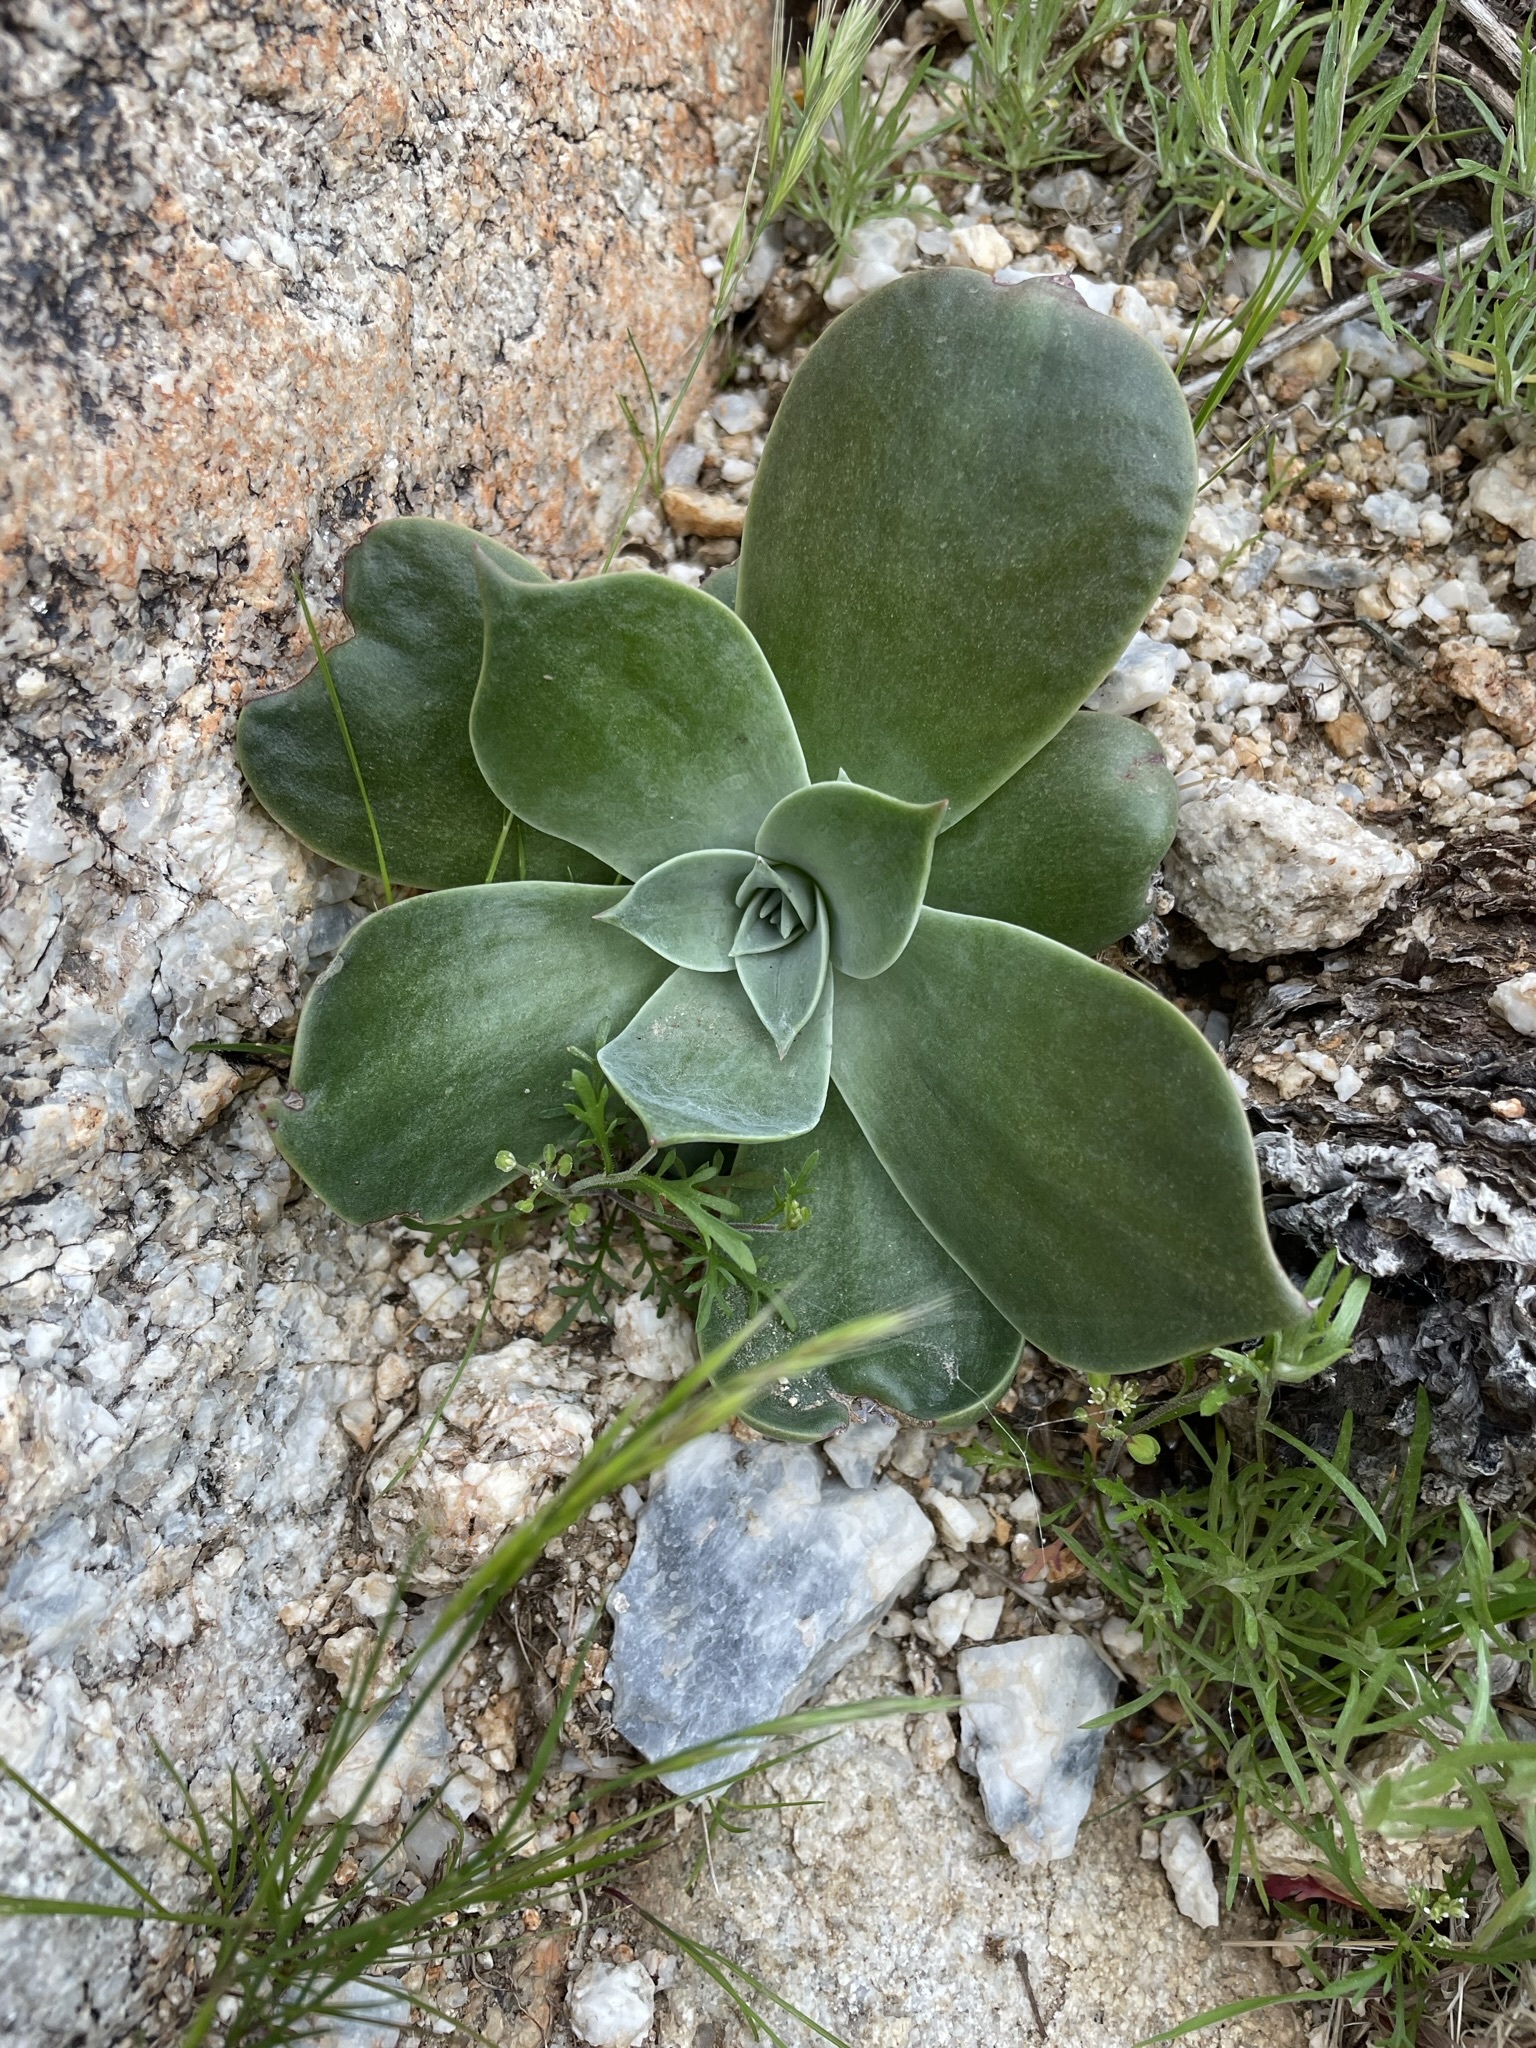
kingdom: Plantae
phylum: Tracheophyta
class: Magnoliopsida
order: Saxifragales
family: Crassulaceae
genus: Dudleya
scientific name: Dudleya arizonica
